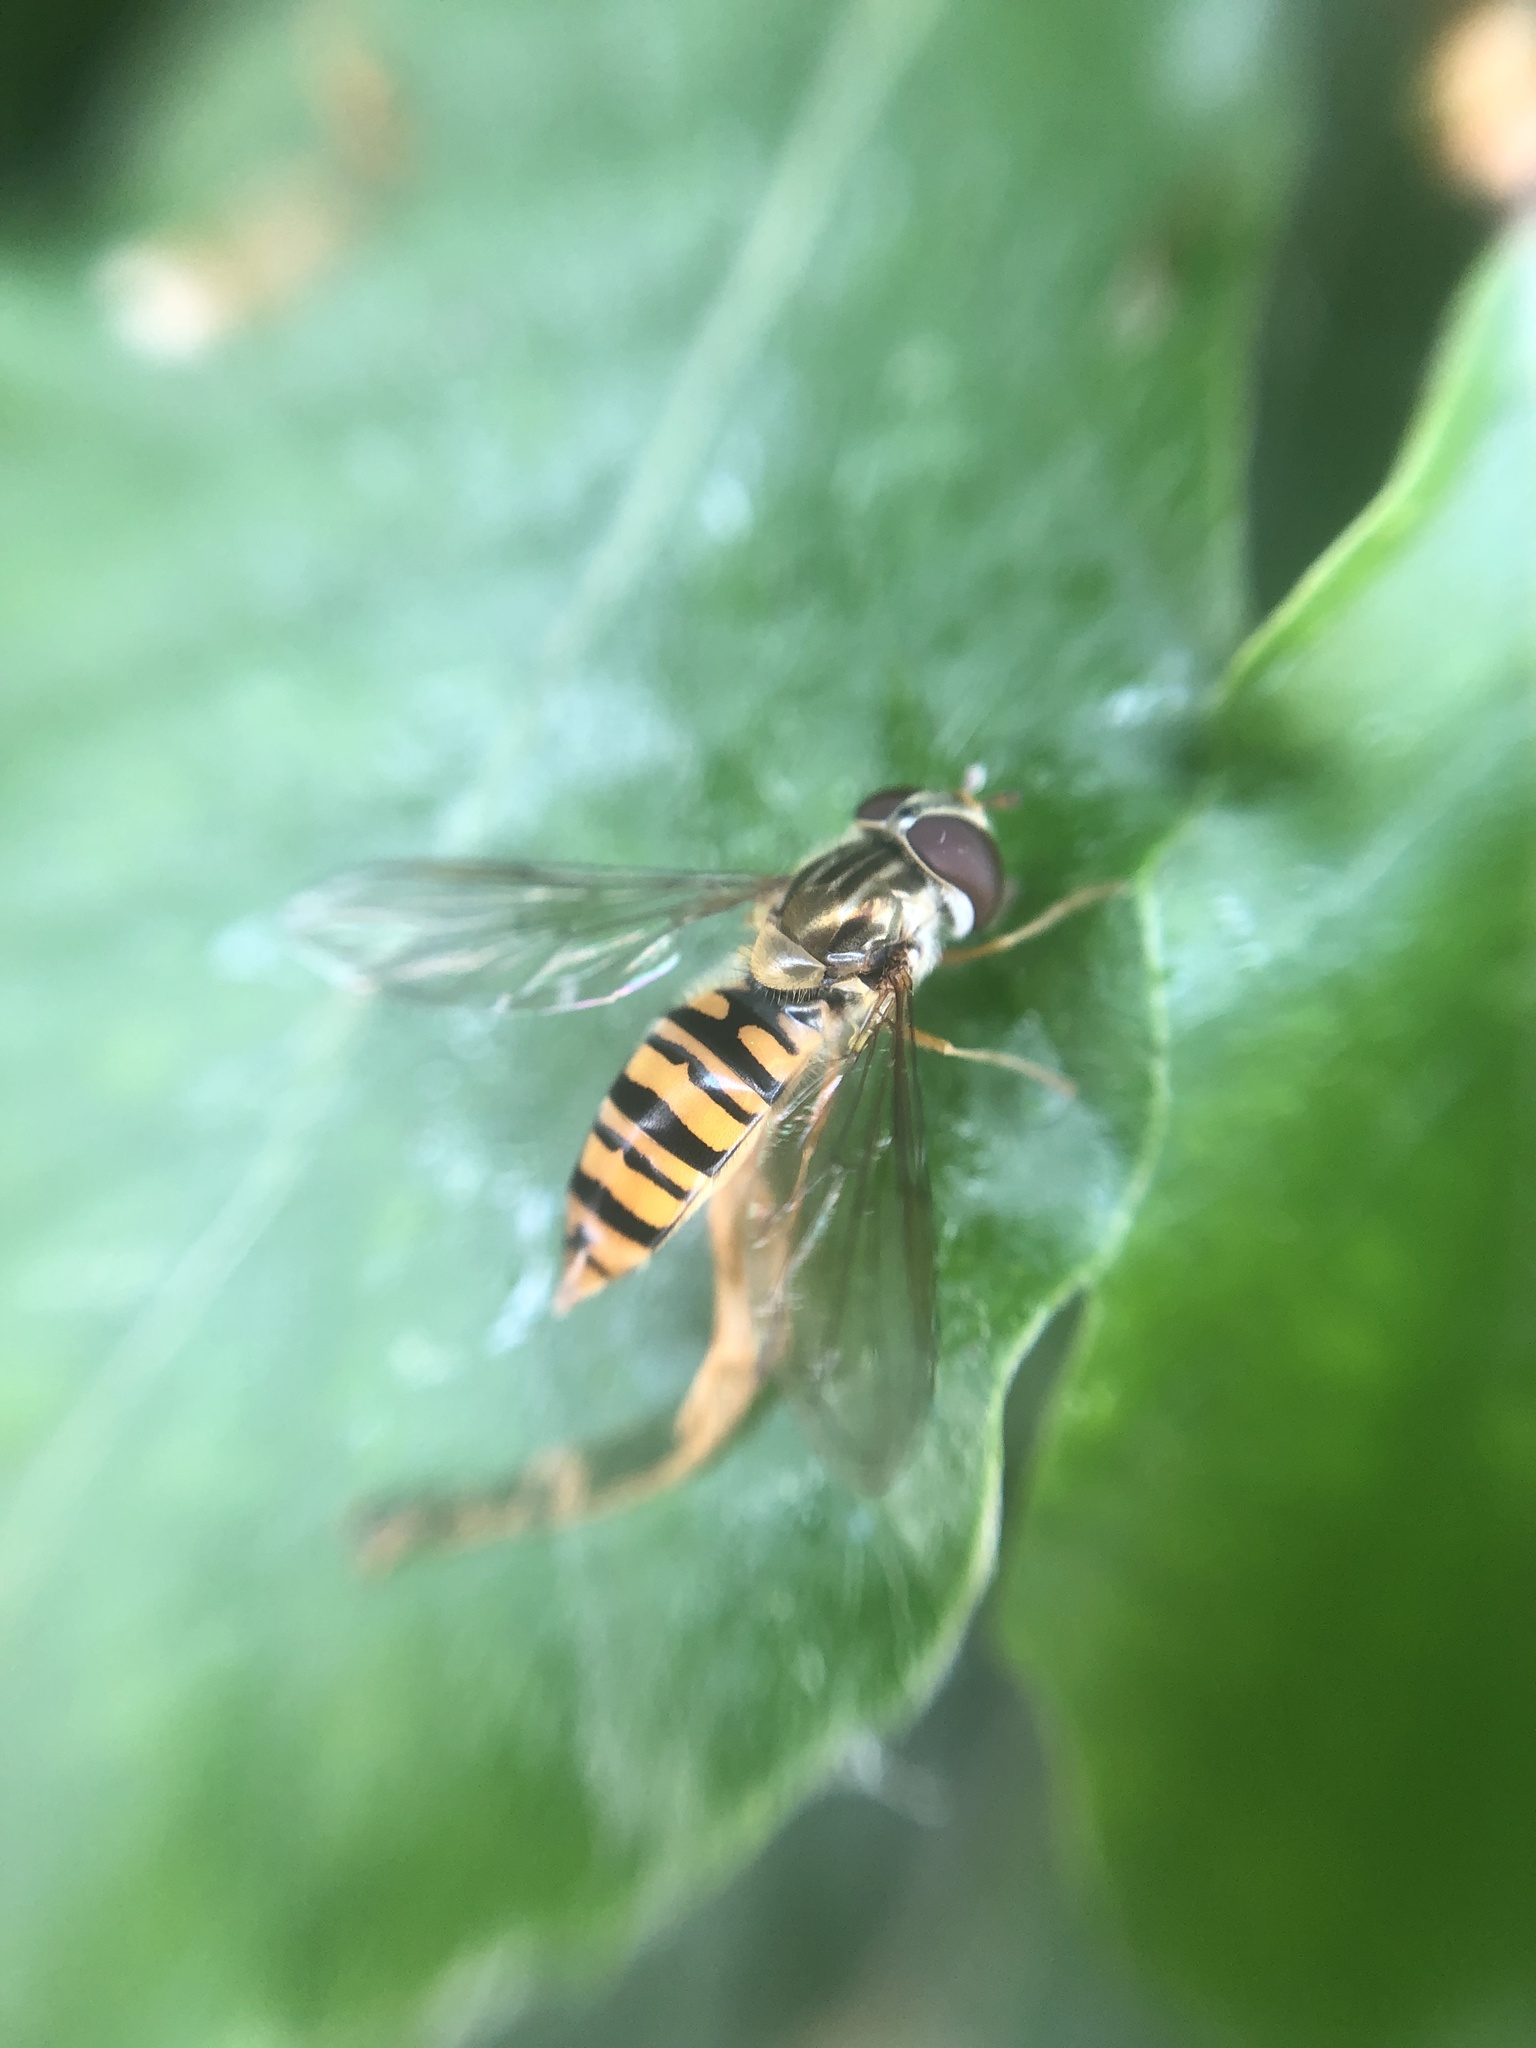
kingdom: Animalia
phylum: Arthropoda
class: Insecta
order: Diptera
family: Syrphidae
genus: Episyrphus
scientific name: Episyrphus balteatus
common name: Marmalade hoverfly
